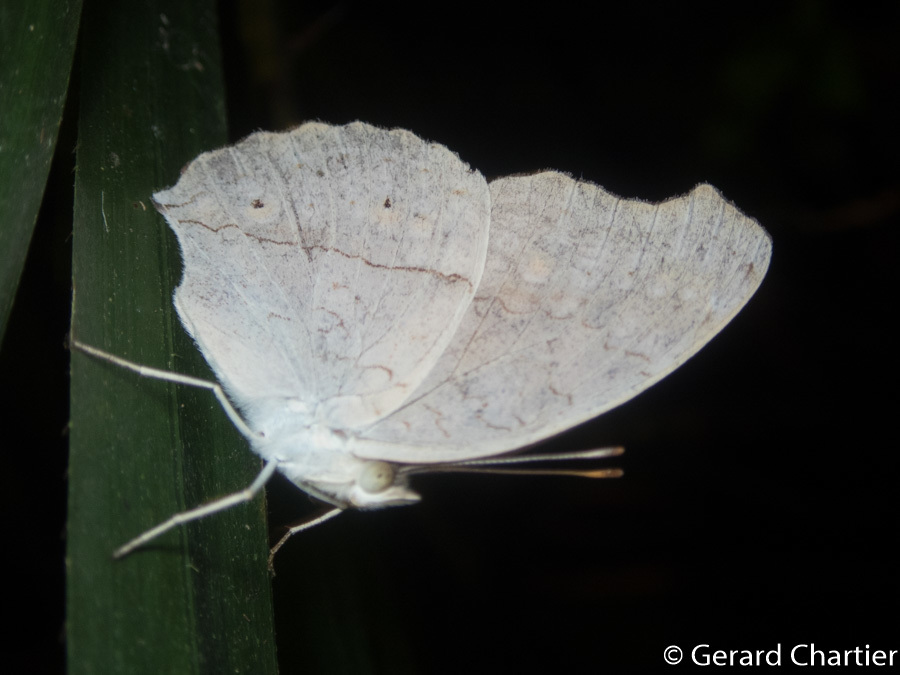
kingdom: Animalia
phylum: Arthropoda
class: Insecta
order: Lepidoptera
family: Nymphalidae
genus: Junonia
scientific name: Junonia atlites
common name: Grey pansy
